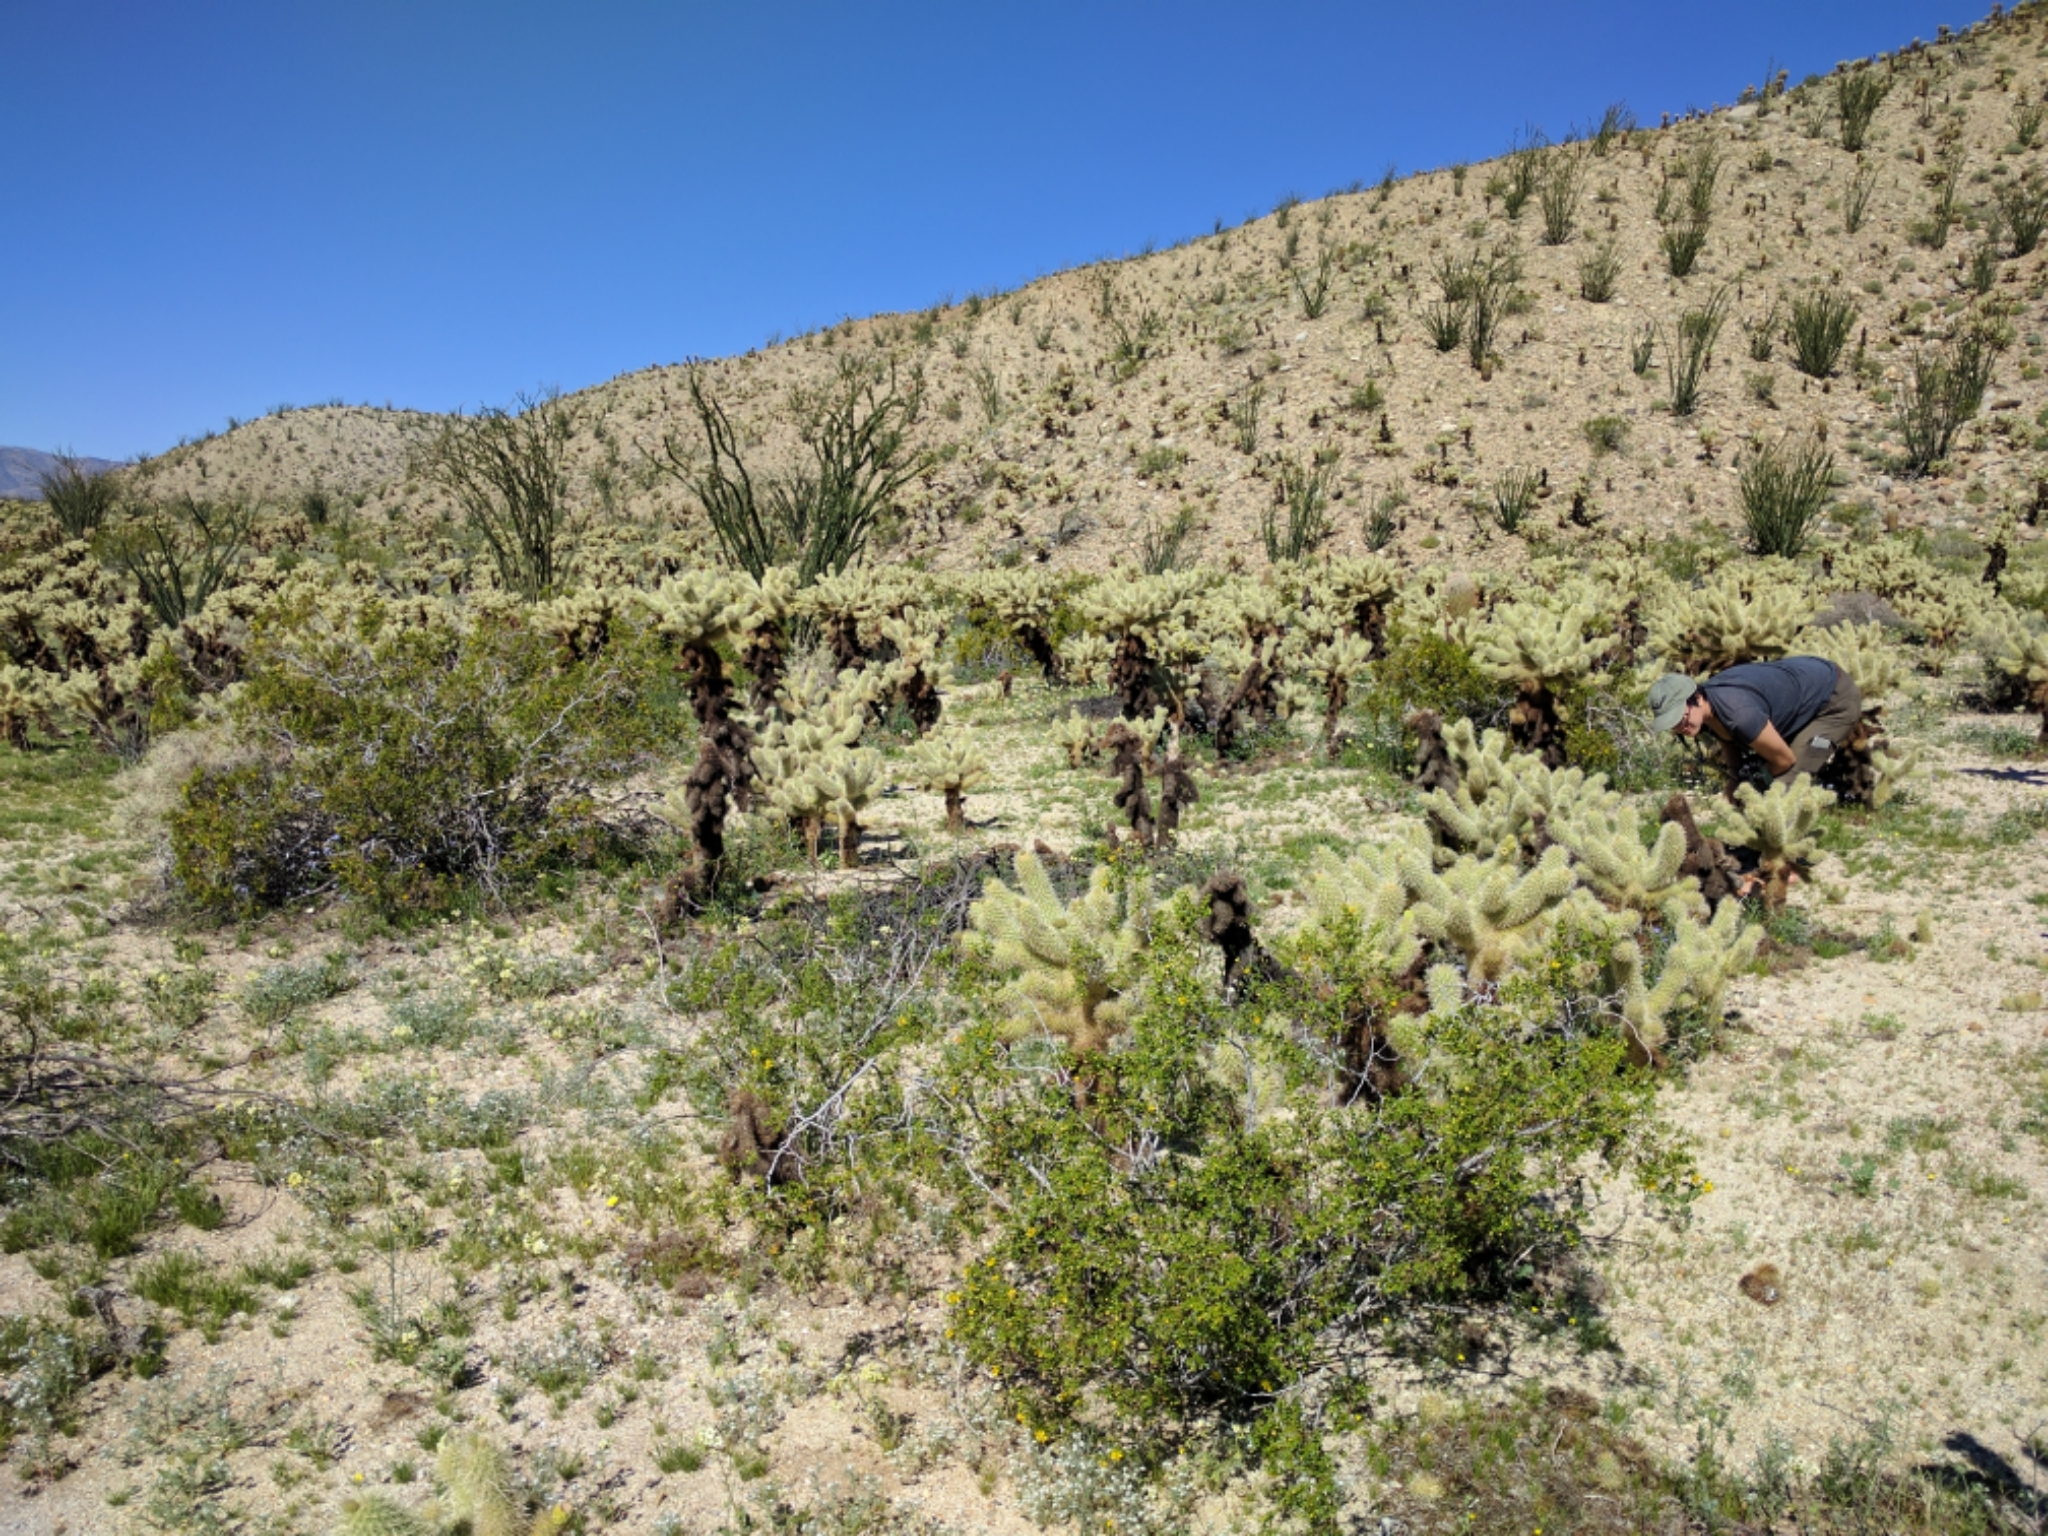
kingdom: Plantae
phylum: Tracheophyta
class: Magnoliopsida
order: Caryophyllales
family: Cactaceae
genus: Cylindropuntia
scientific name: Cylindropuntia fosbergii
